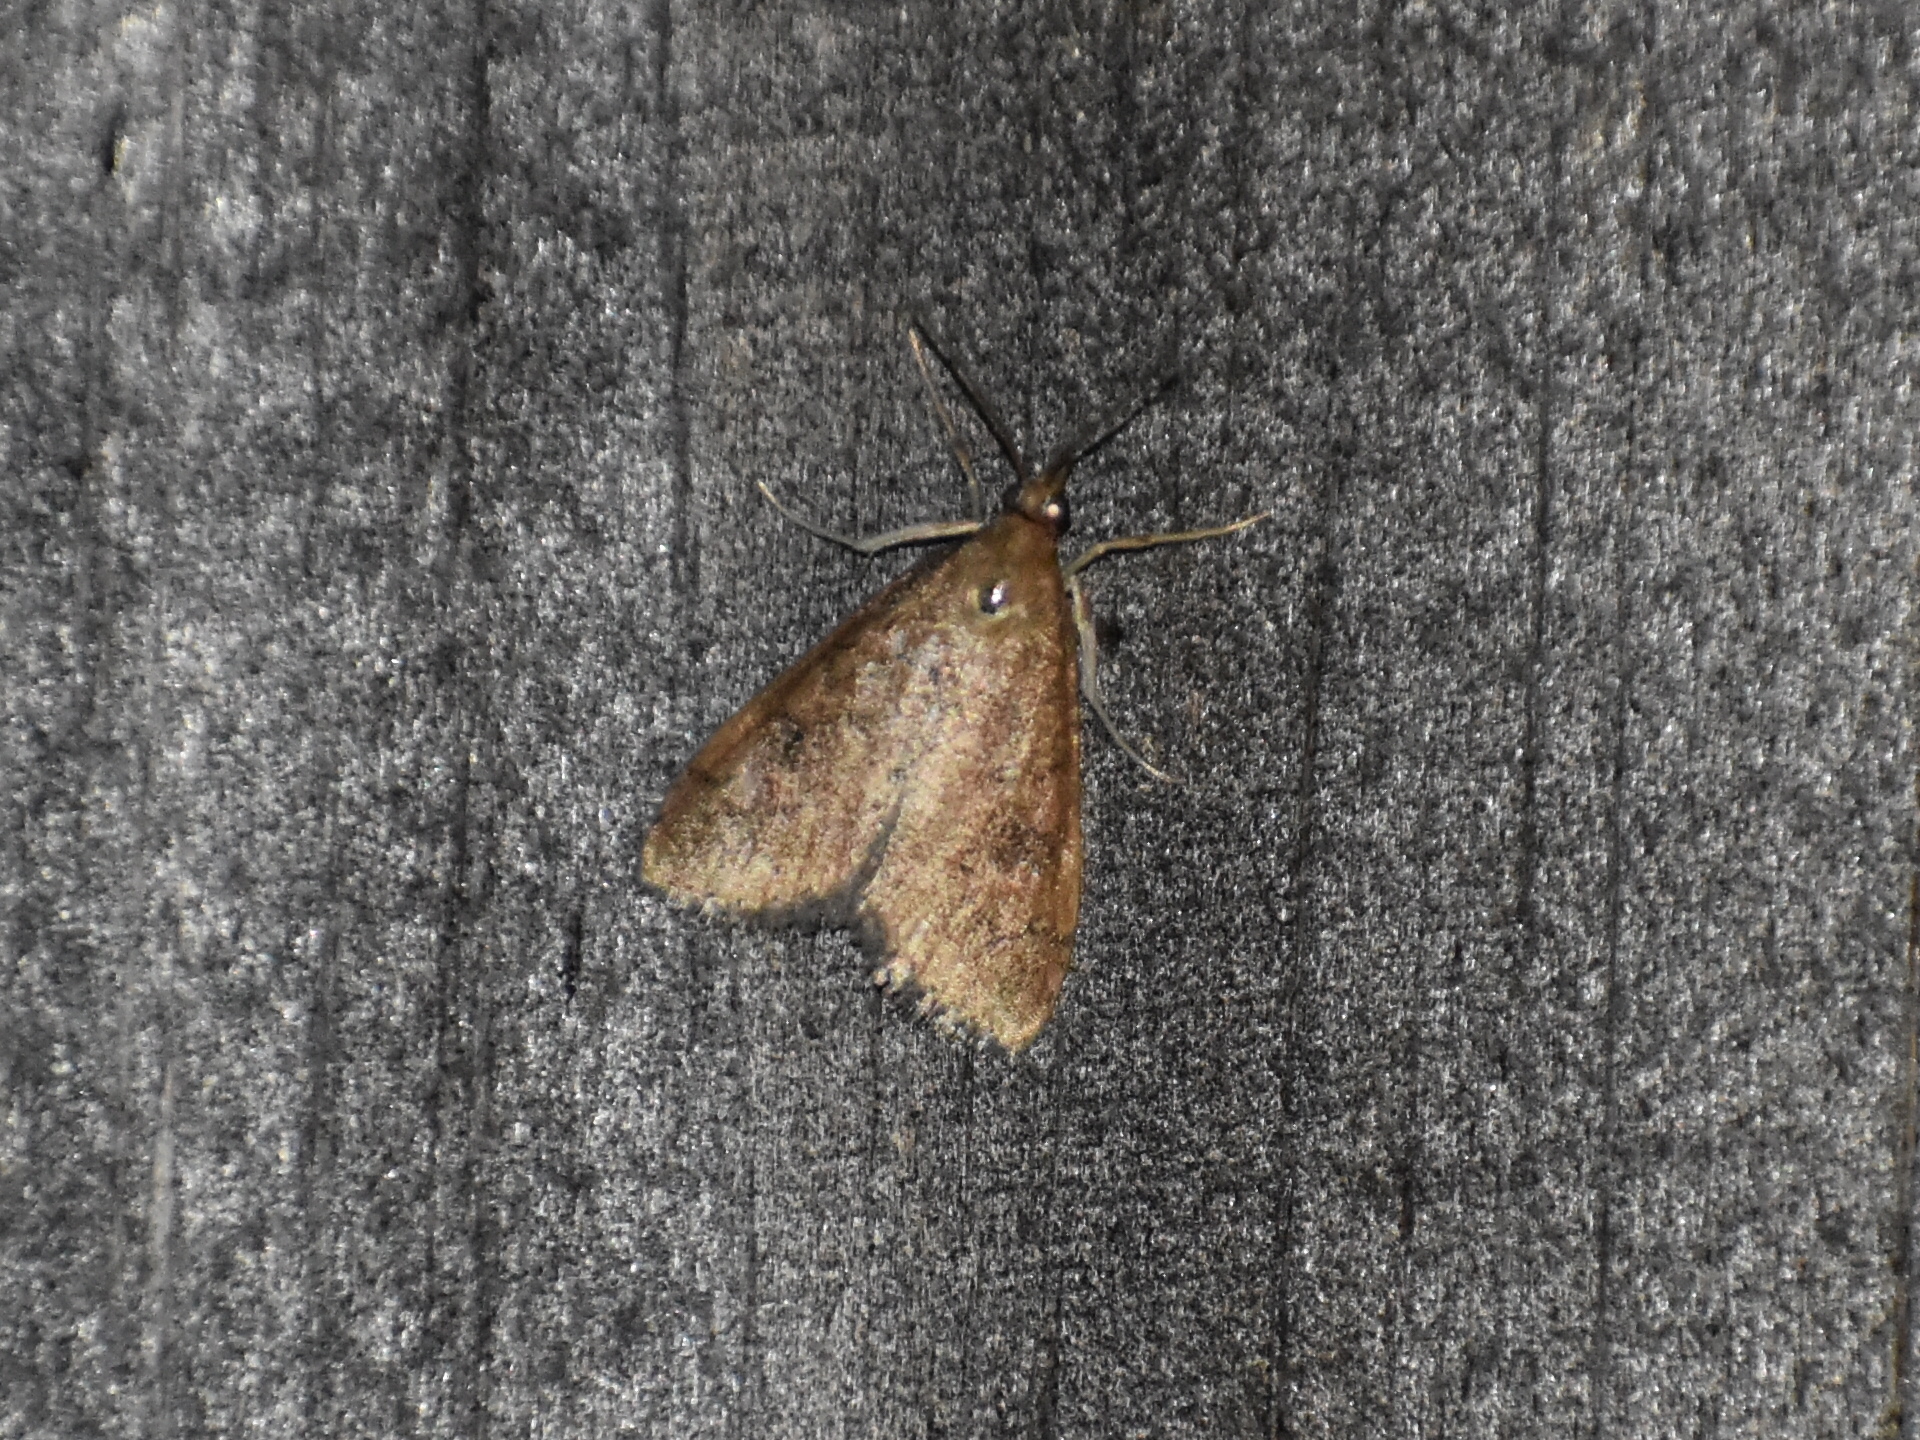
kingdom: Animalia
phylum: Arthropoda
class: Insecta
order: Lepidoptera
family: Crambidae
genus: Udea
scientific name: Udea rubigalis
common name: Celery leaftier moth
